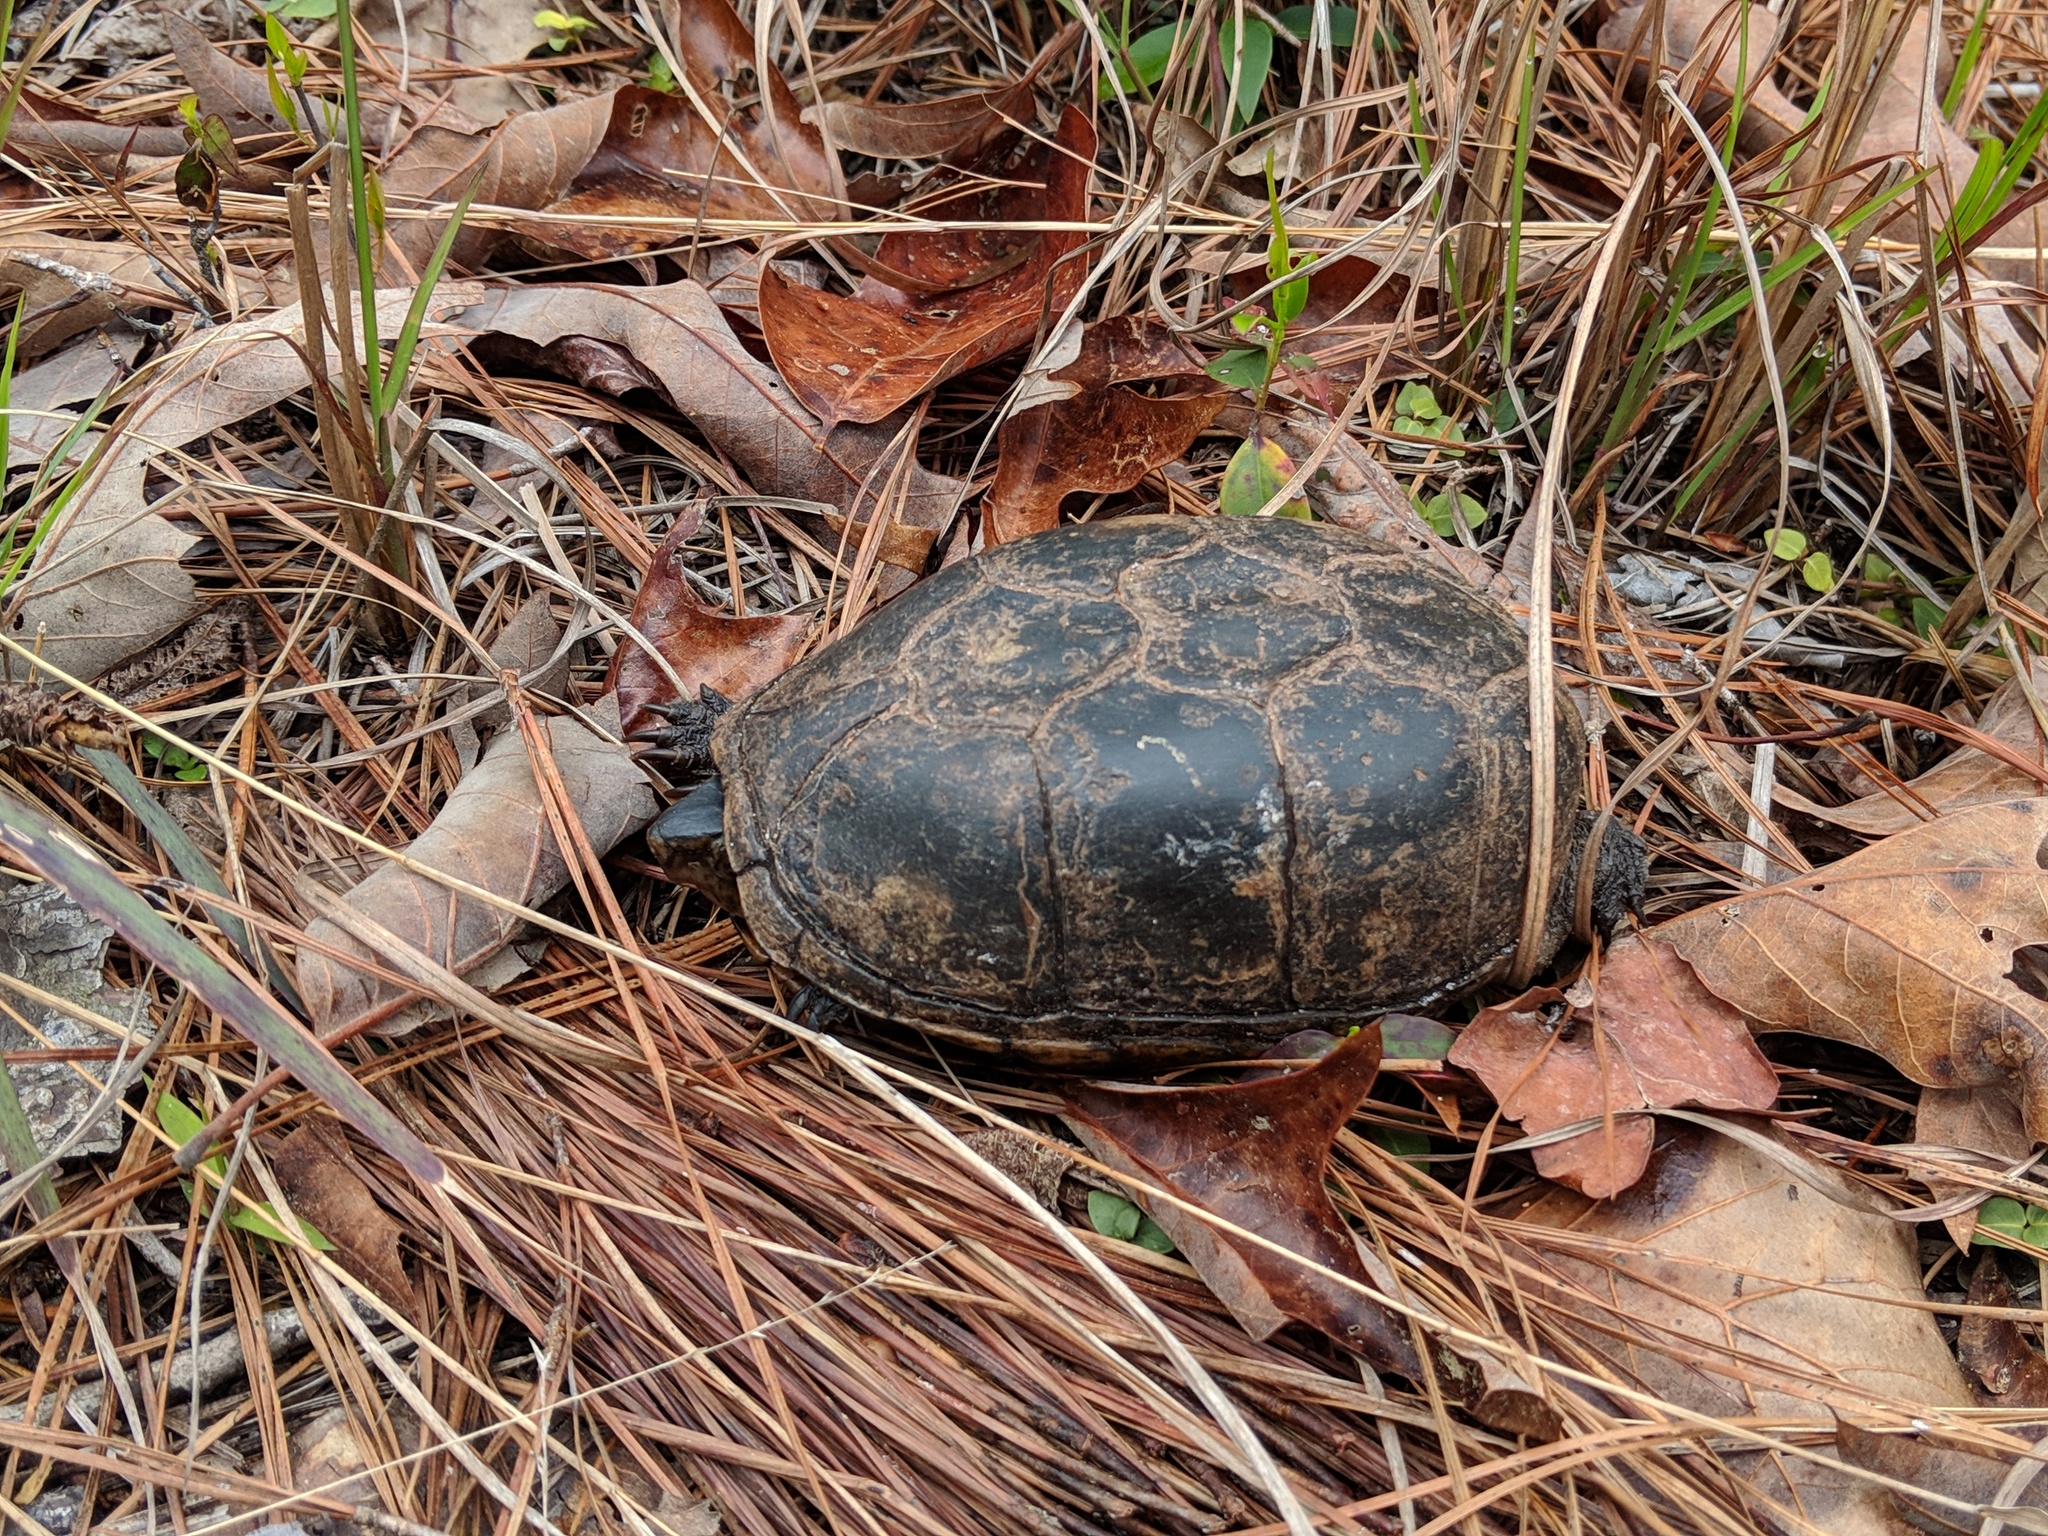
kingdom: Animalia
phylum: Chordata
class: Testudines
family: Kinosternidae
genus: Kinosternon
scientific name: Kinosternon
